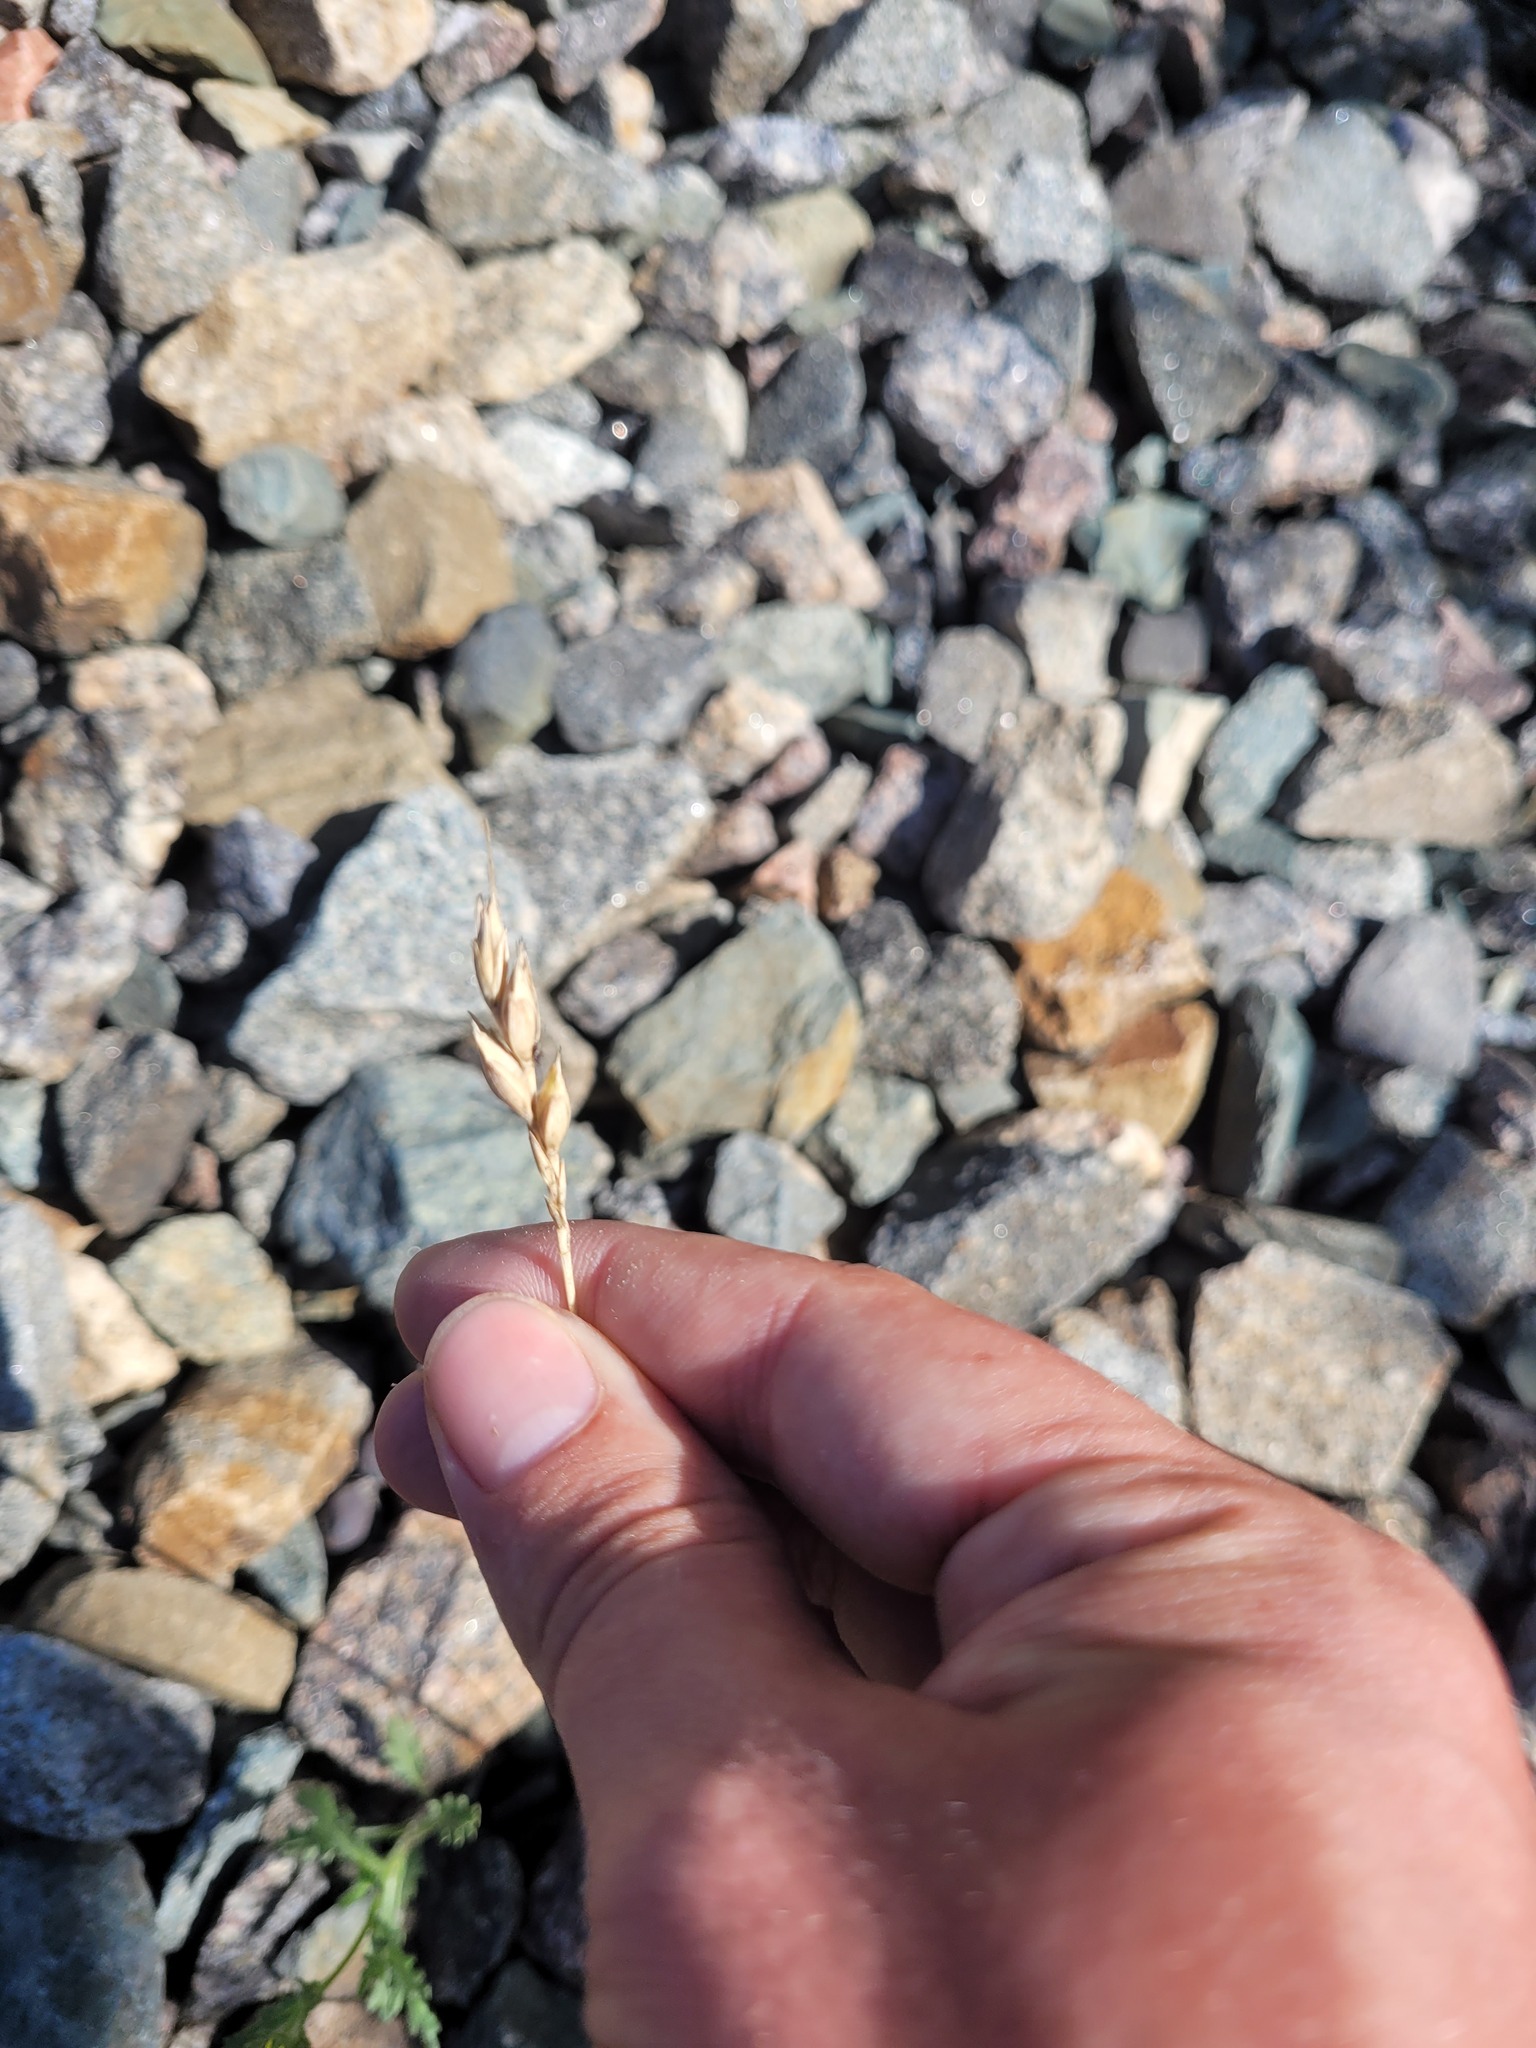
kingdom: Plantae
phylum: Tracheophyta
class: Liliopsida
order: Poales
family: Poaceae
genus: Triticum
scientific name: Triticum aestivum
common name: Common wheat
